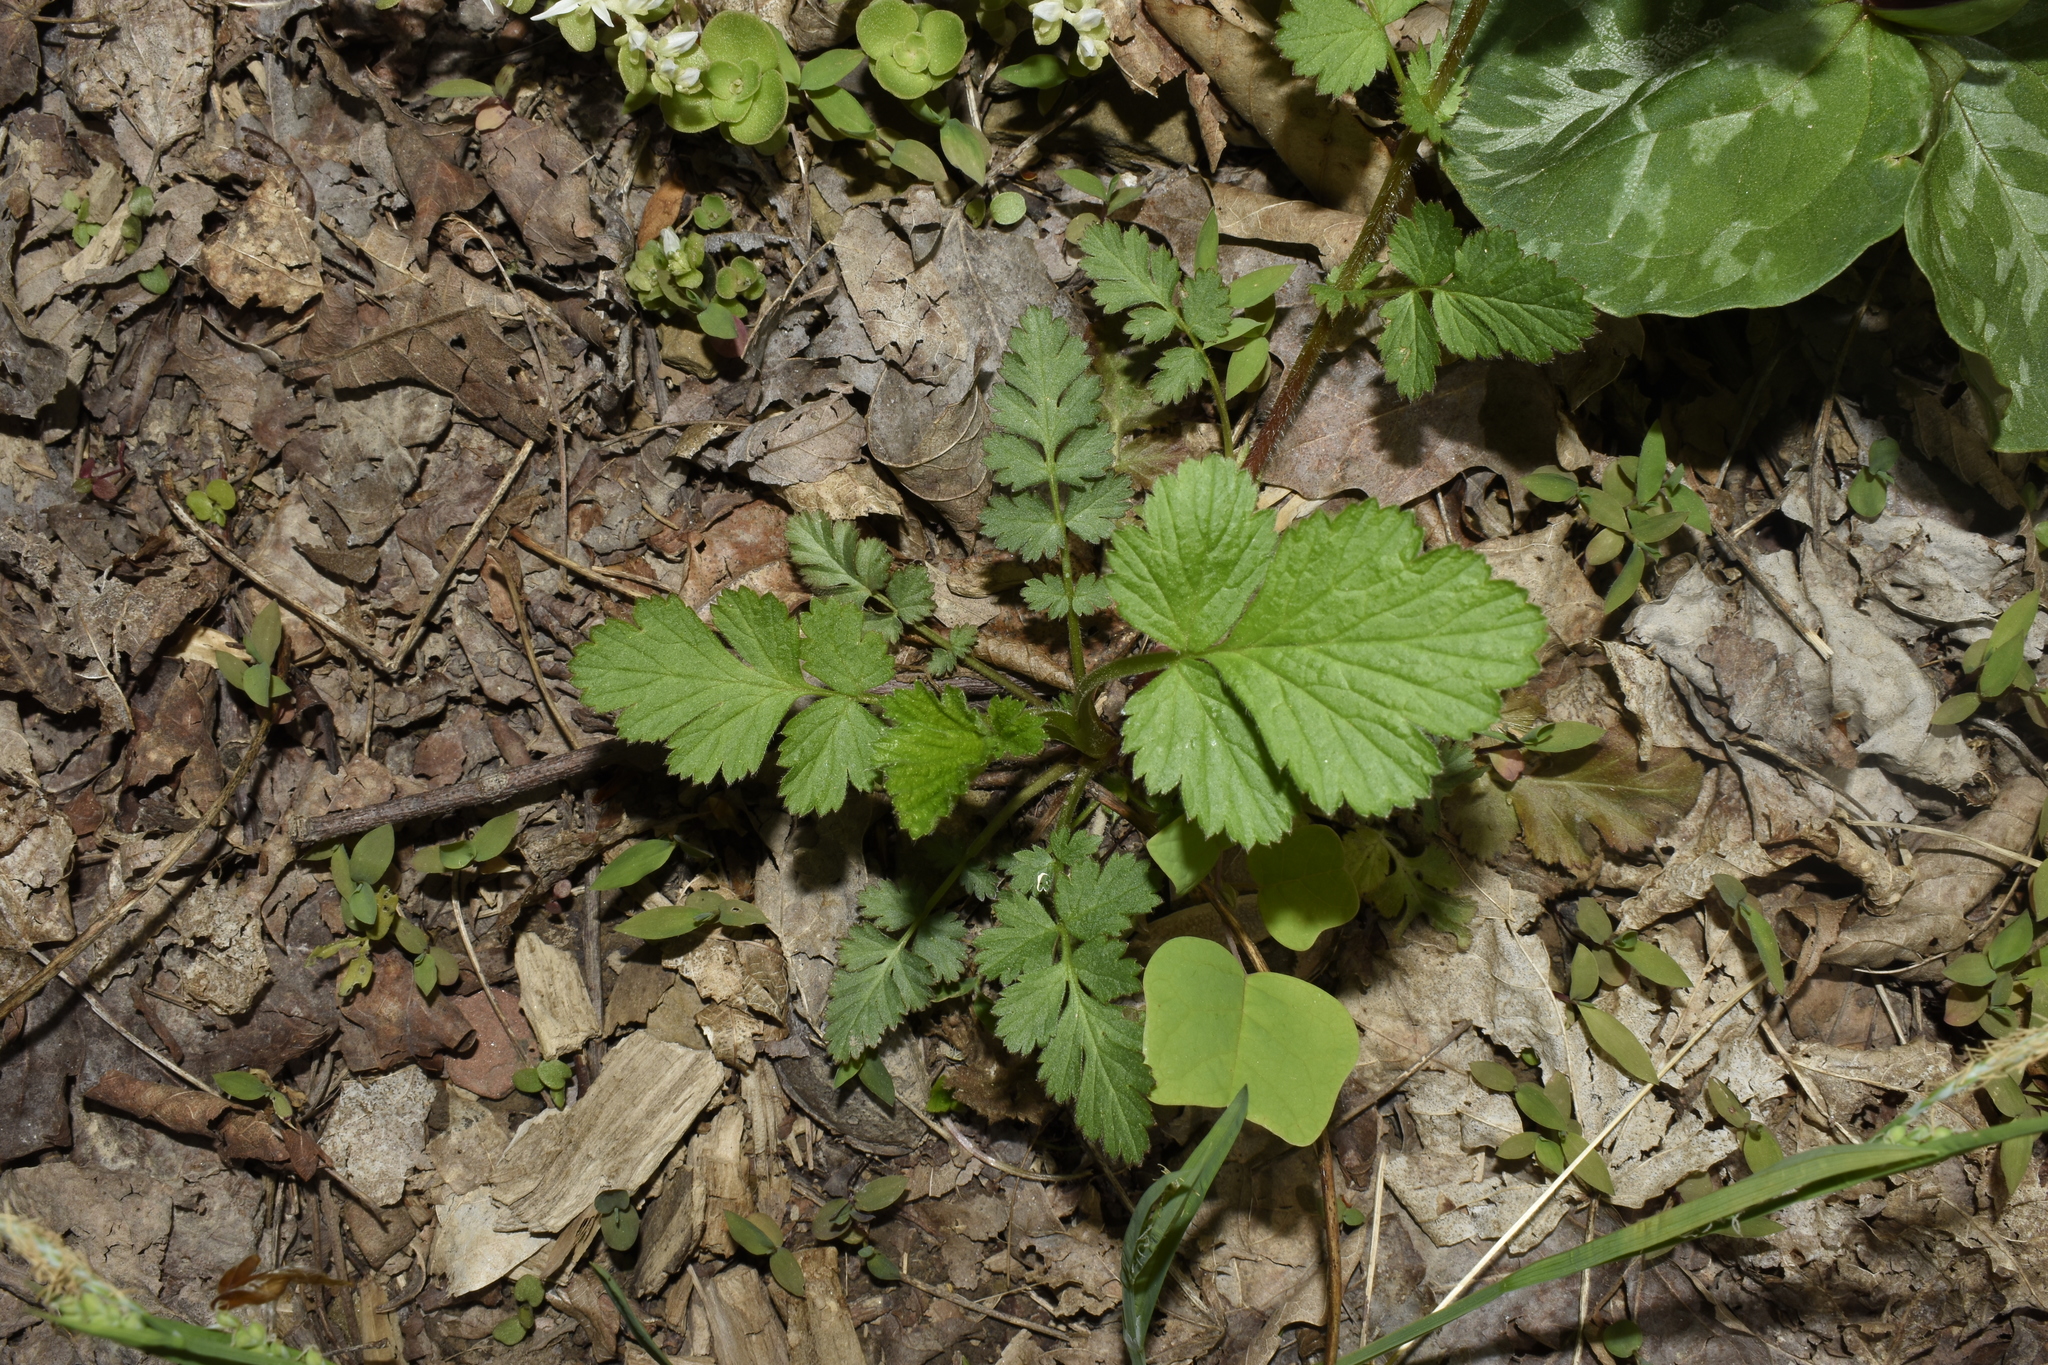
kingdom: Plantae
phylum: Tracheophyta
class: Magnoliopsida
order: Rosales
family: Rosaceae
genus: Geum
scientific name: Geum vernum
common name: Spring avens
